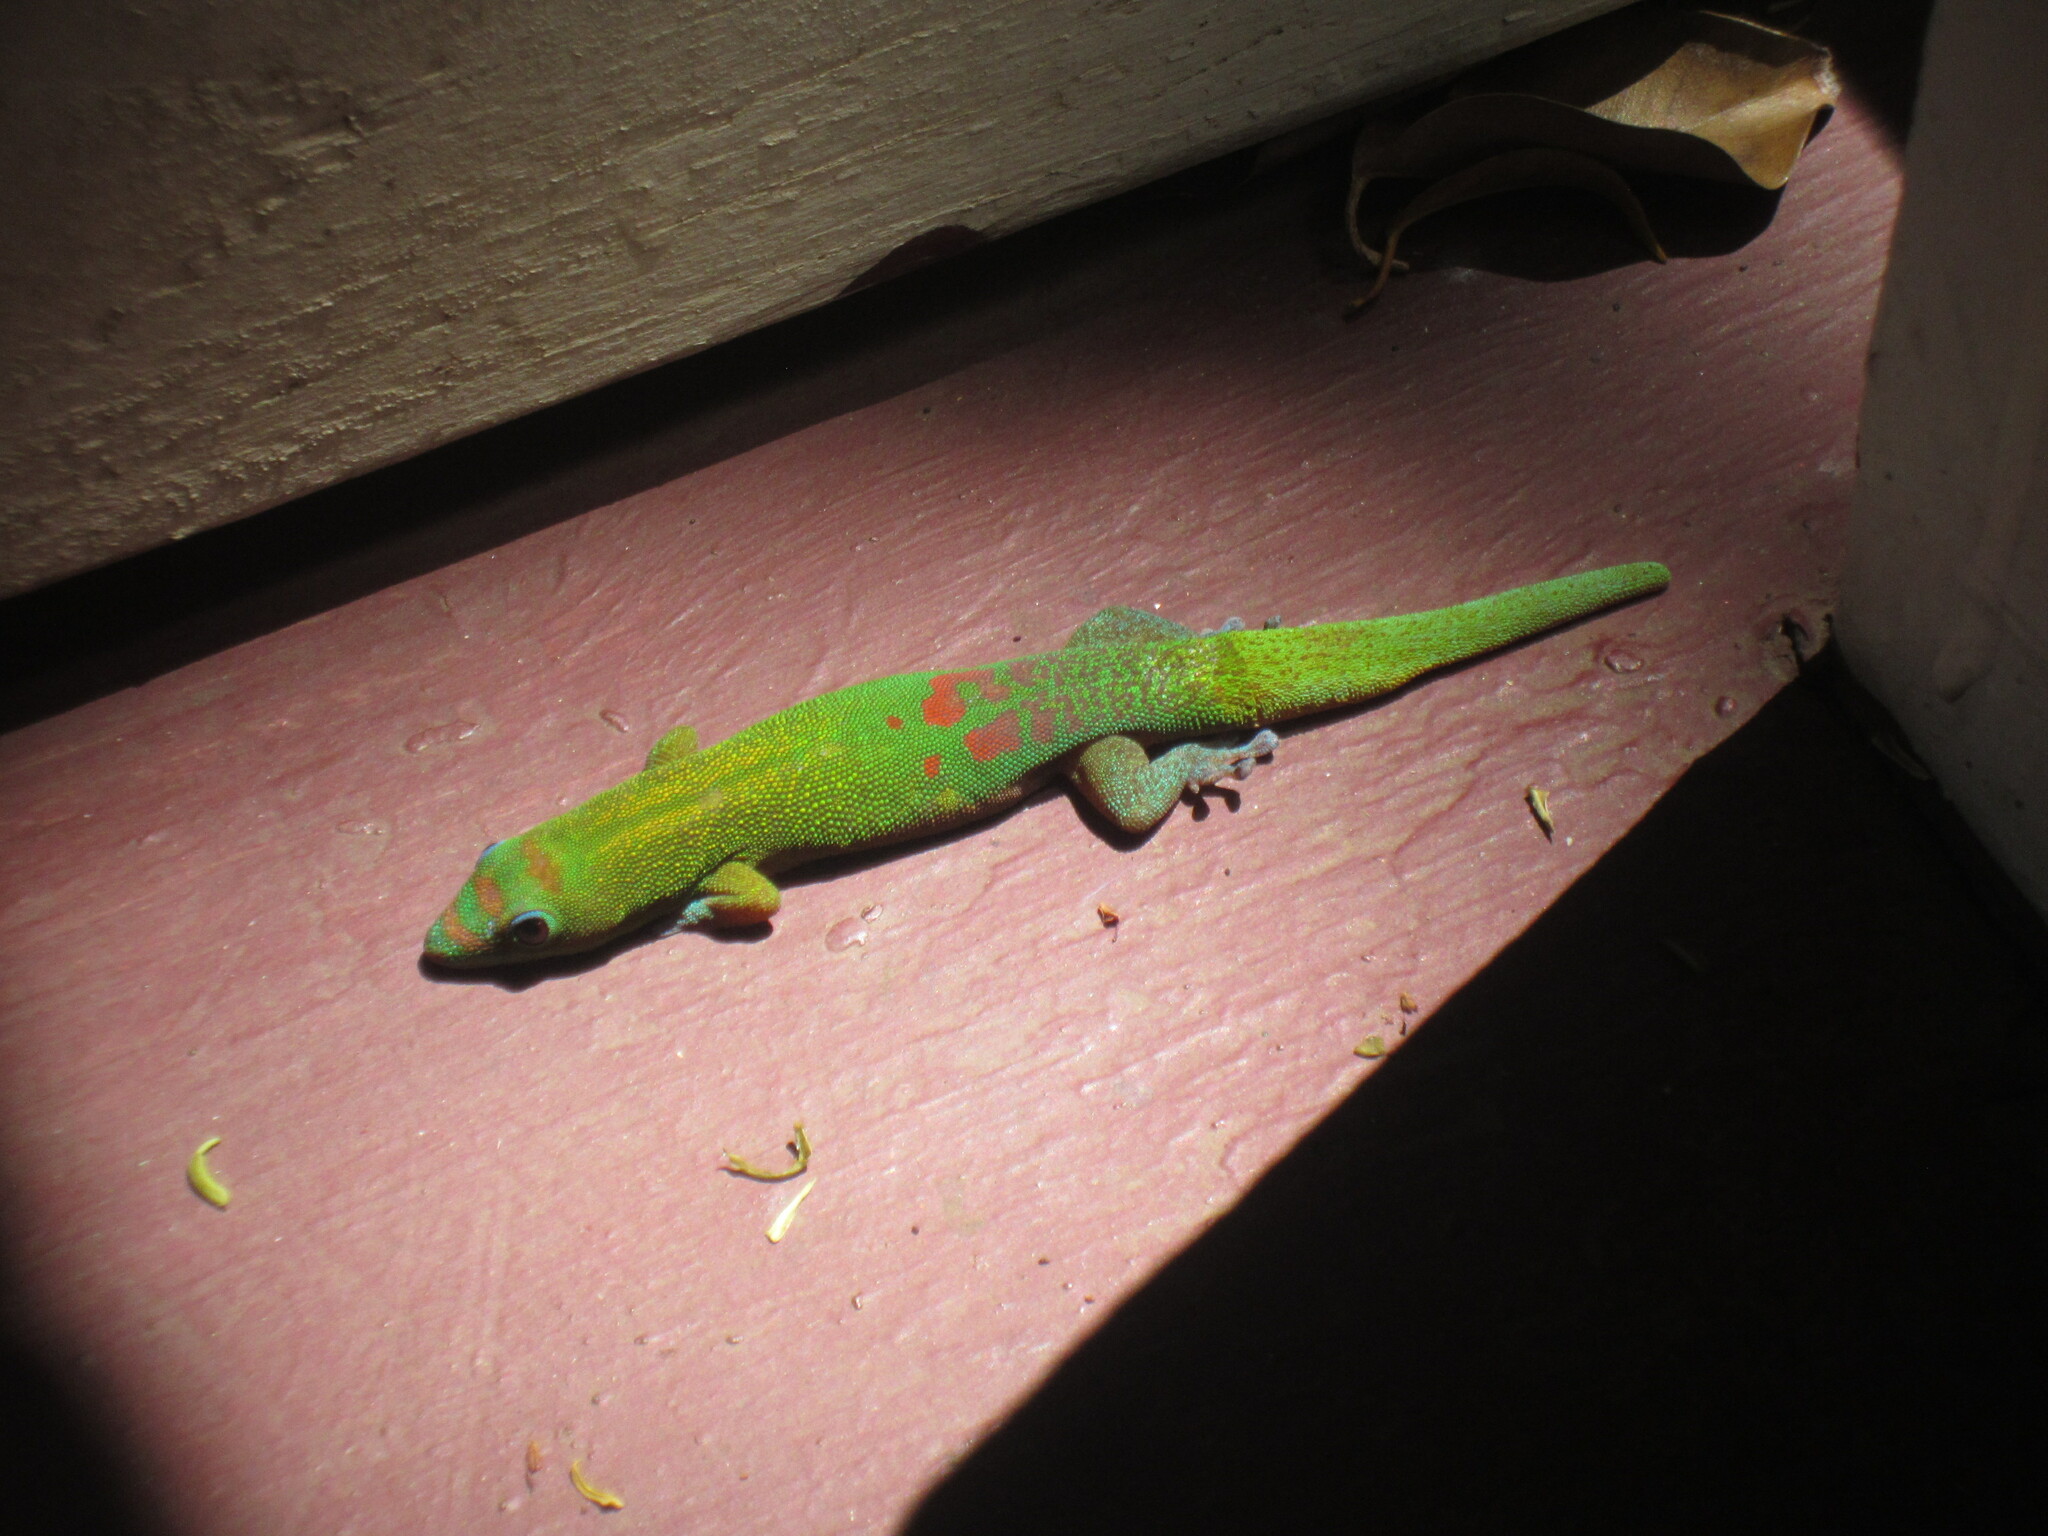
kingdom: Animalia
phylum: Chordata
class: Squamata
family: Gekkonidae
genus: Phelsuma
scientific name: Phelsuma laticauda
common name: Gold dust day gecko
